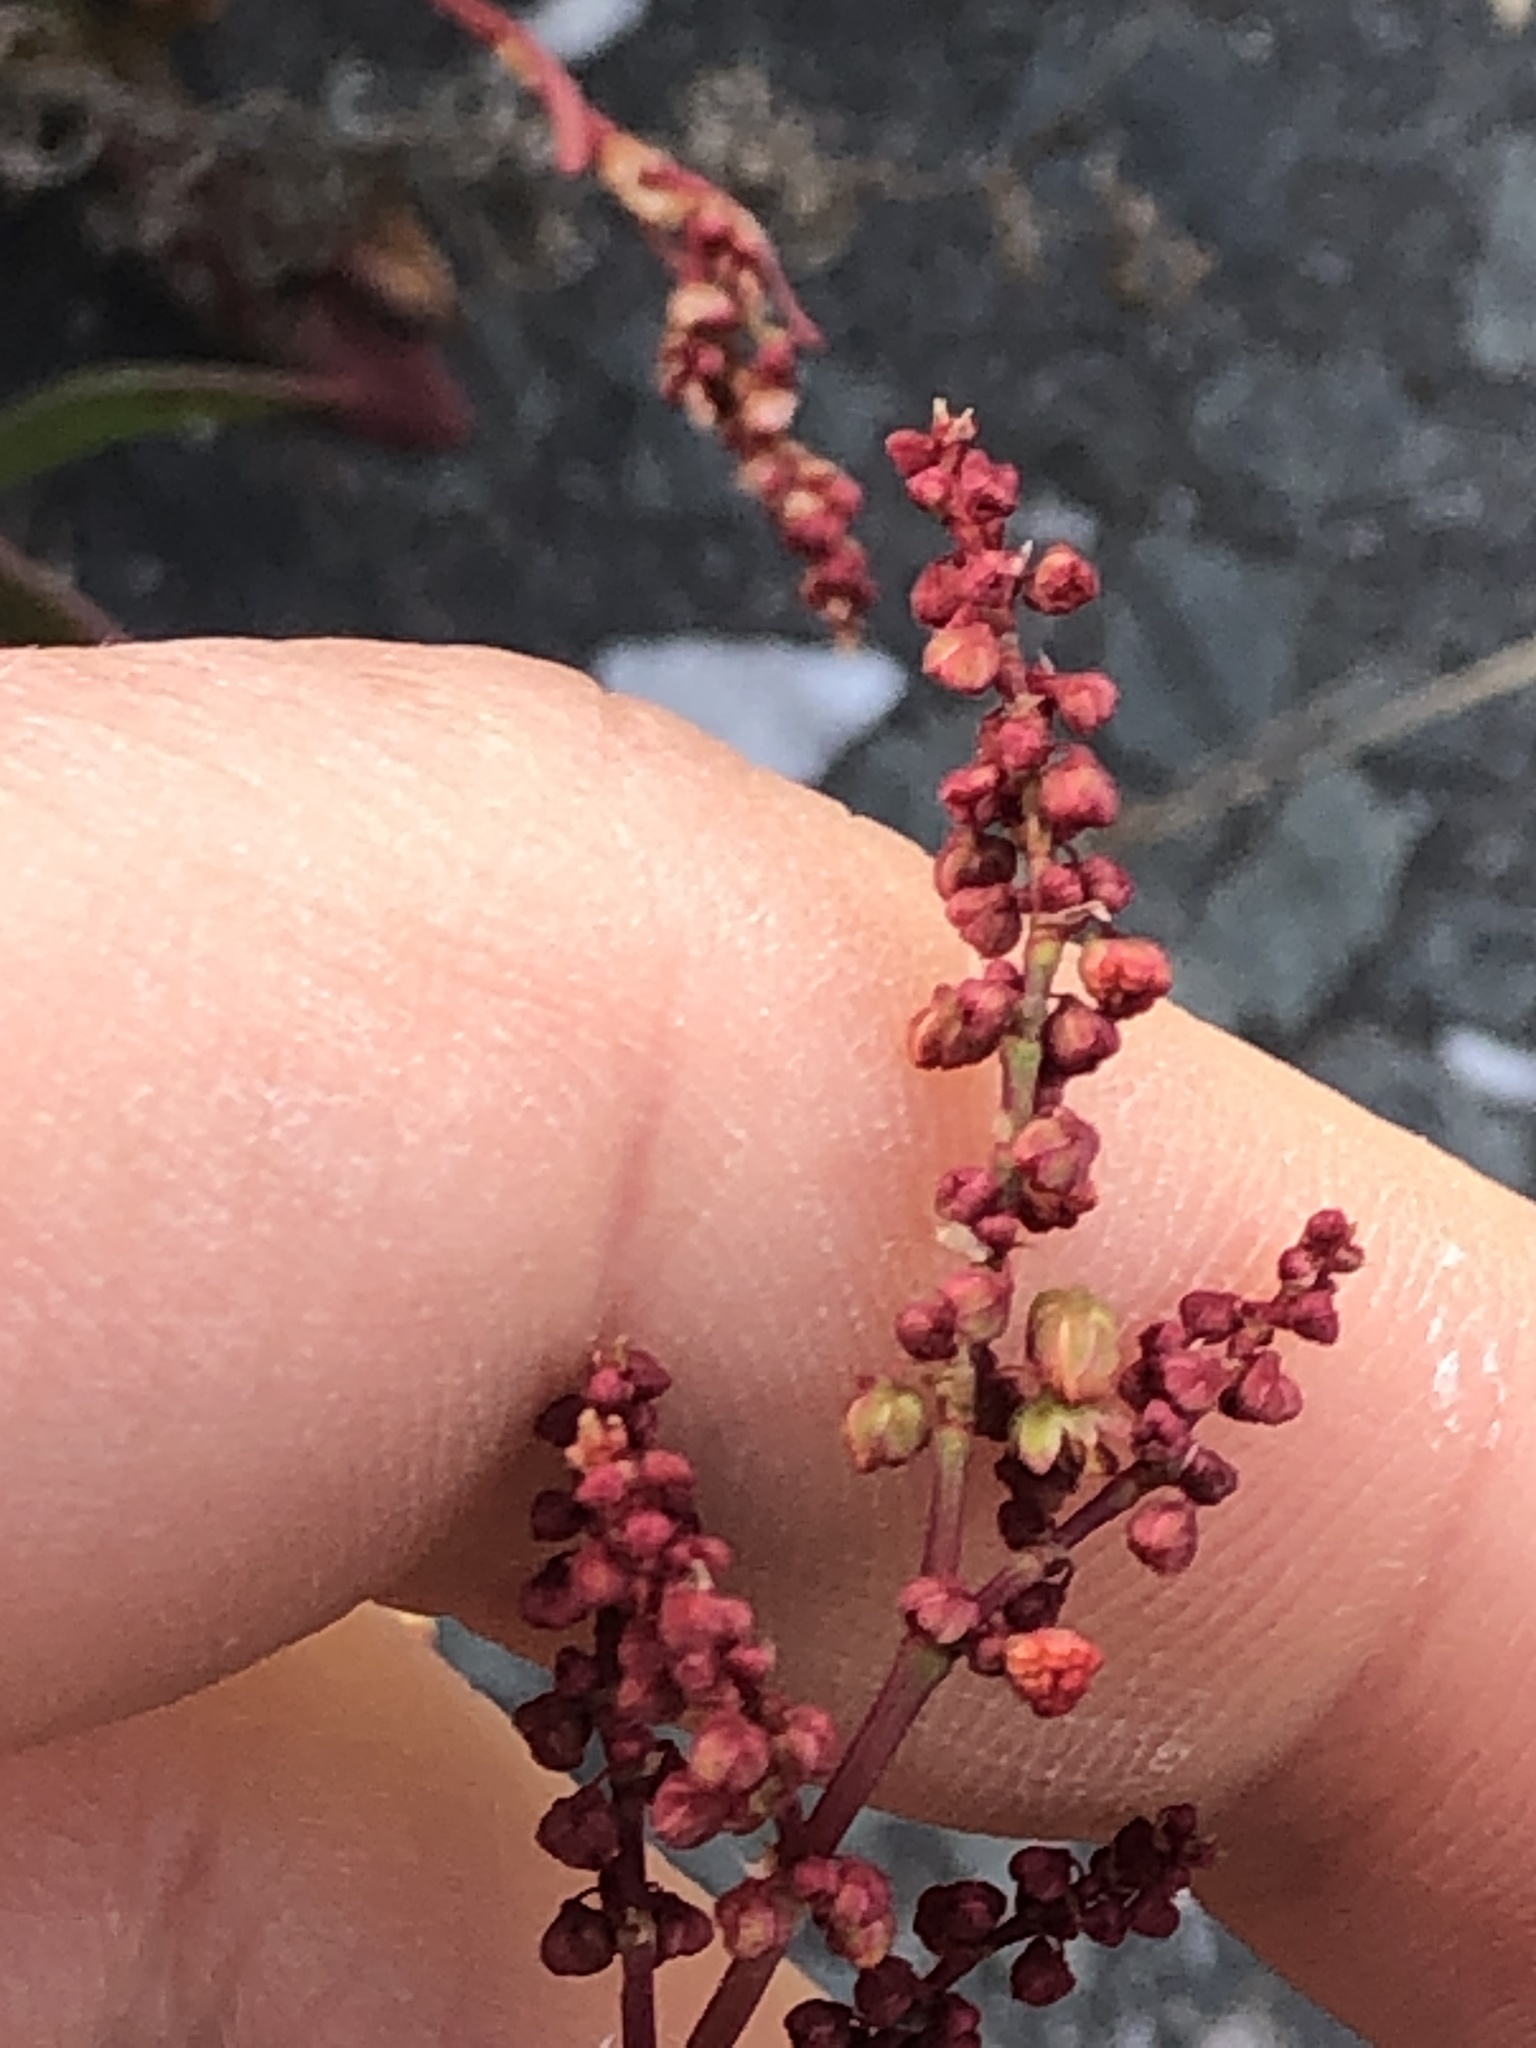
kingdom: Plantae
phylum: Tracheophyta
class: Magnoliopsida
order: Caryophyllales
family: Polygonaceae
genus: Rumex
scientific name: Rumex acetosella
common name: Common sheep sorrel
